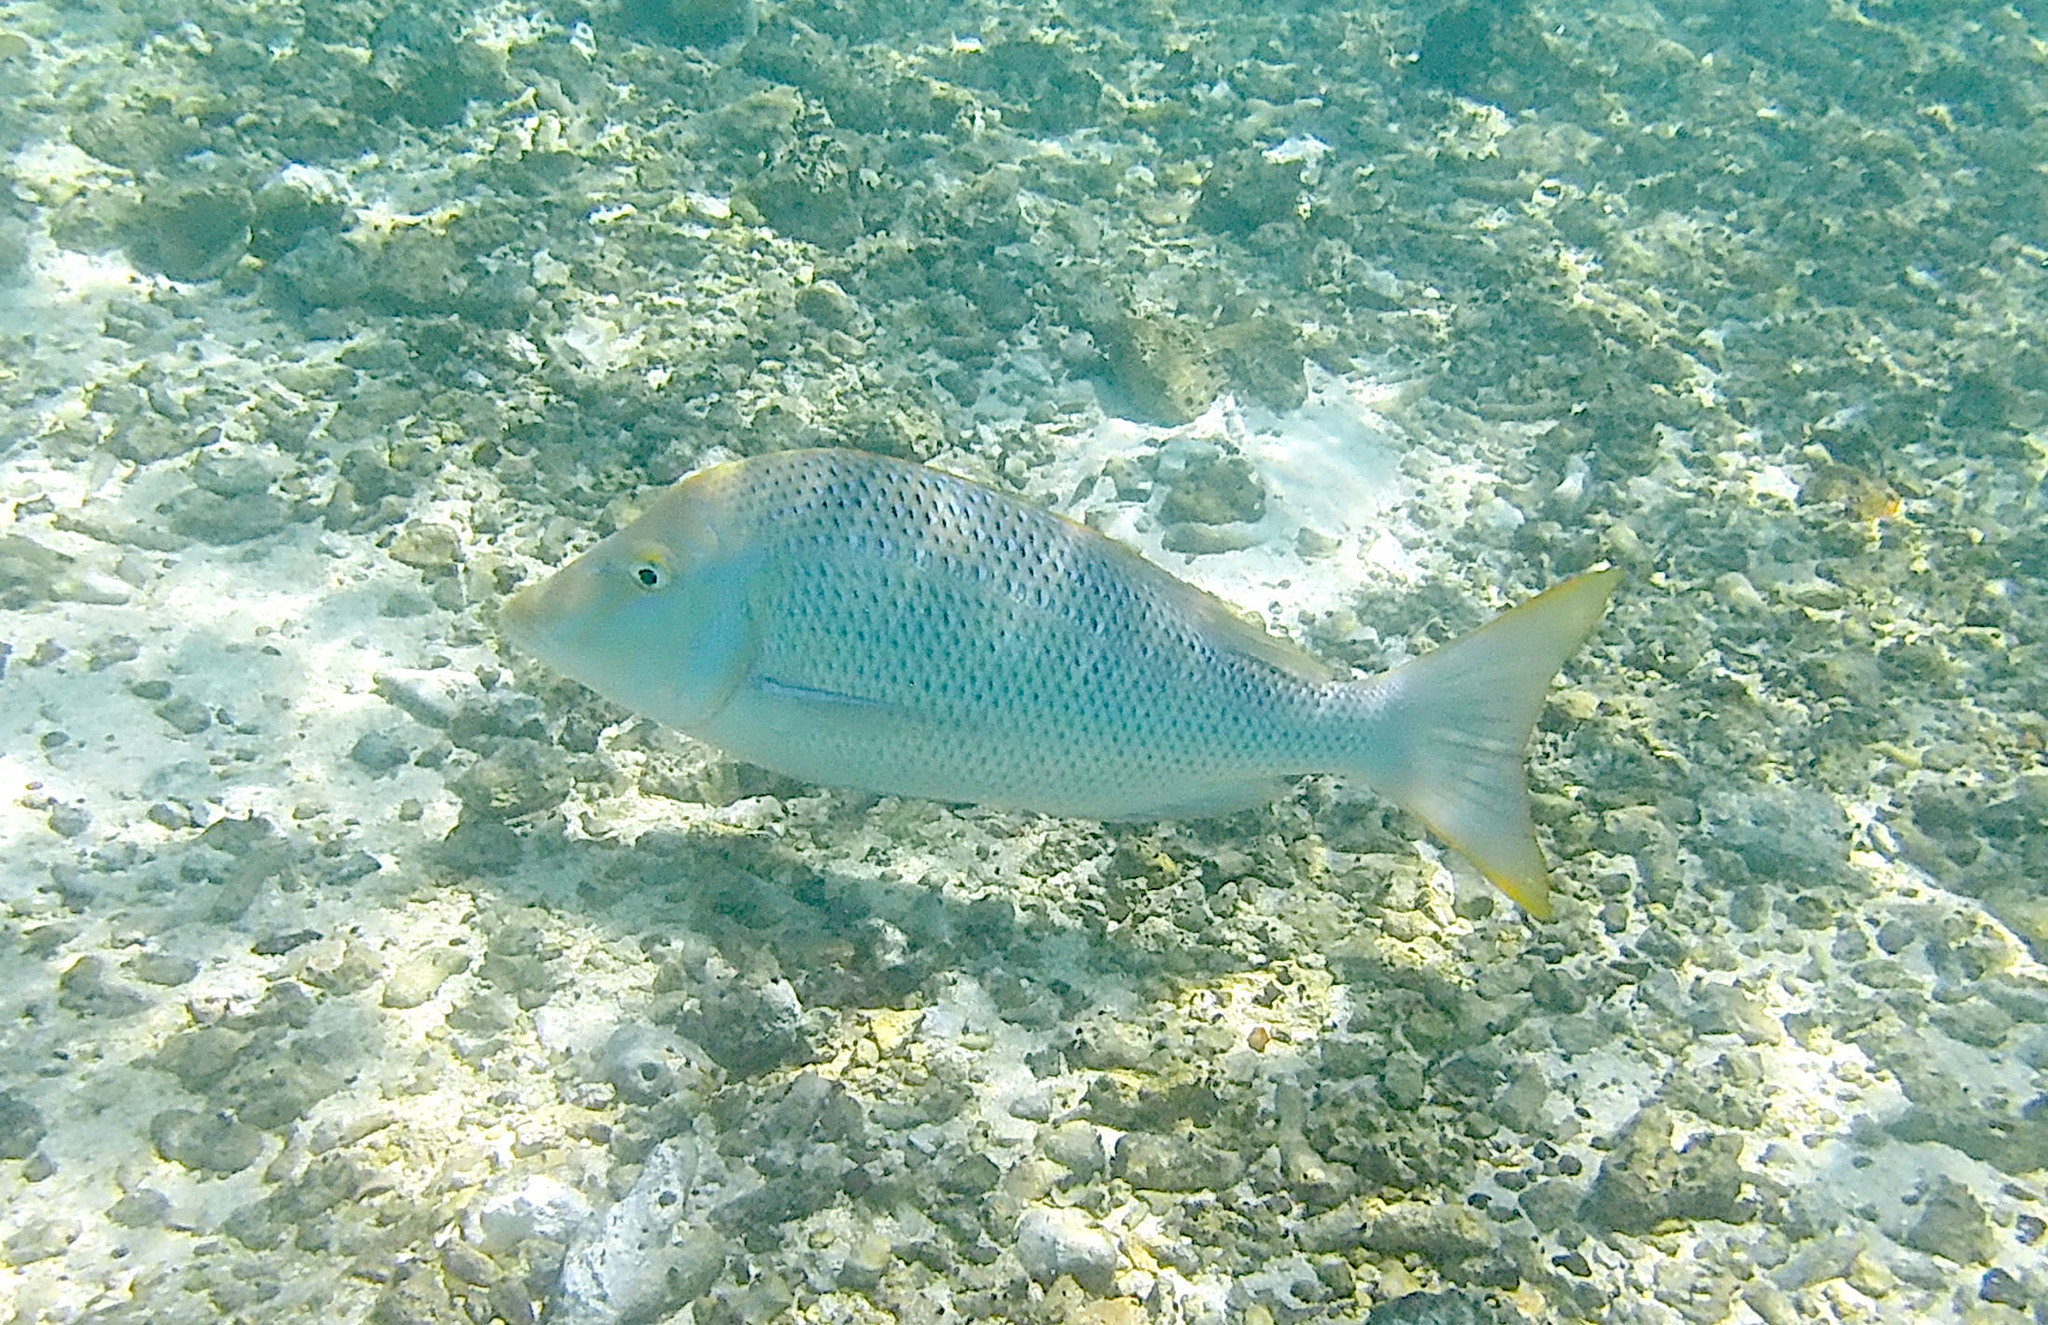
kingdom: Animalia
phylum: Chordata
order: Perciformes
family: Lethrinidae
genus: Lethrinus
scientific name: Lethrinus nebulosus
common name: Spangled emperor
